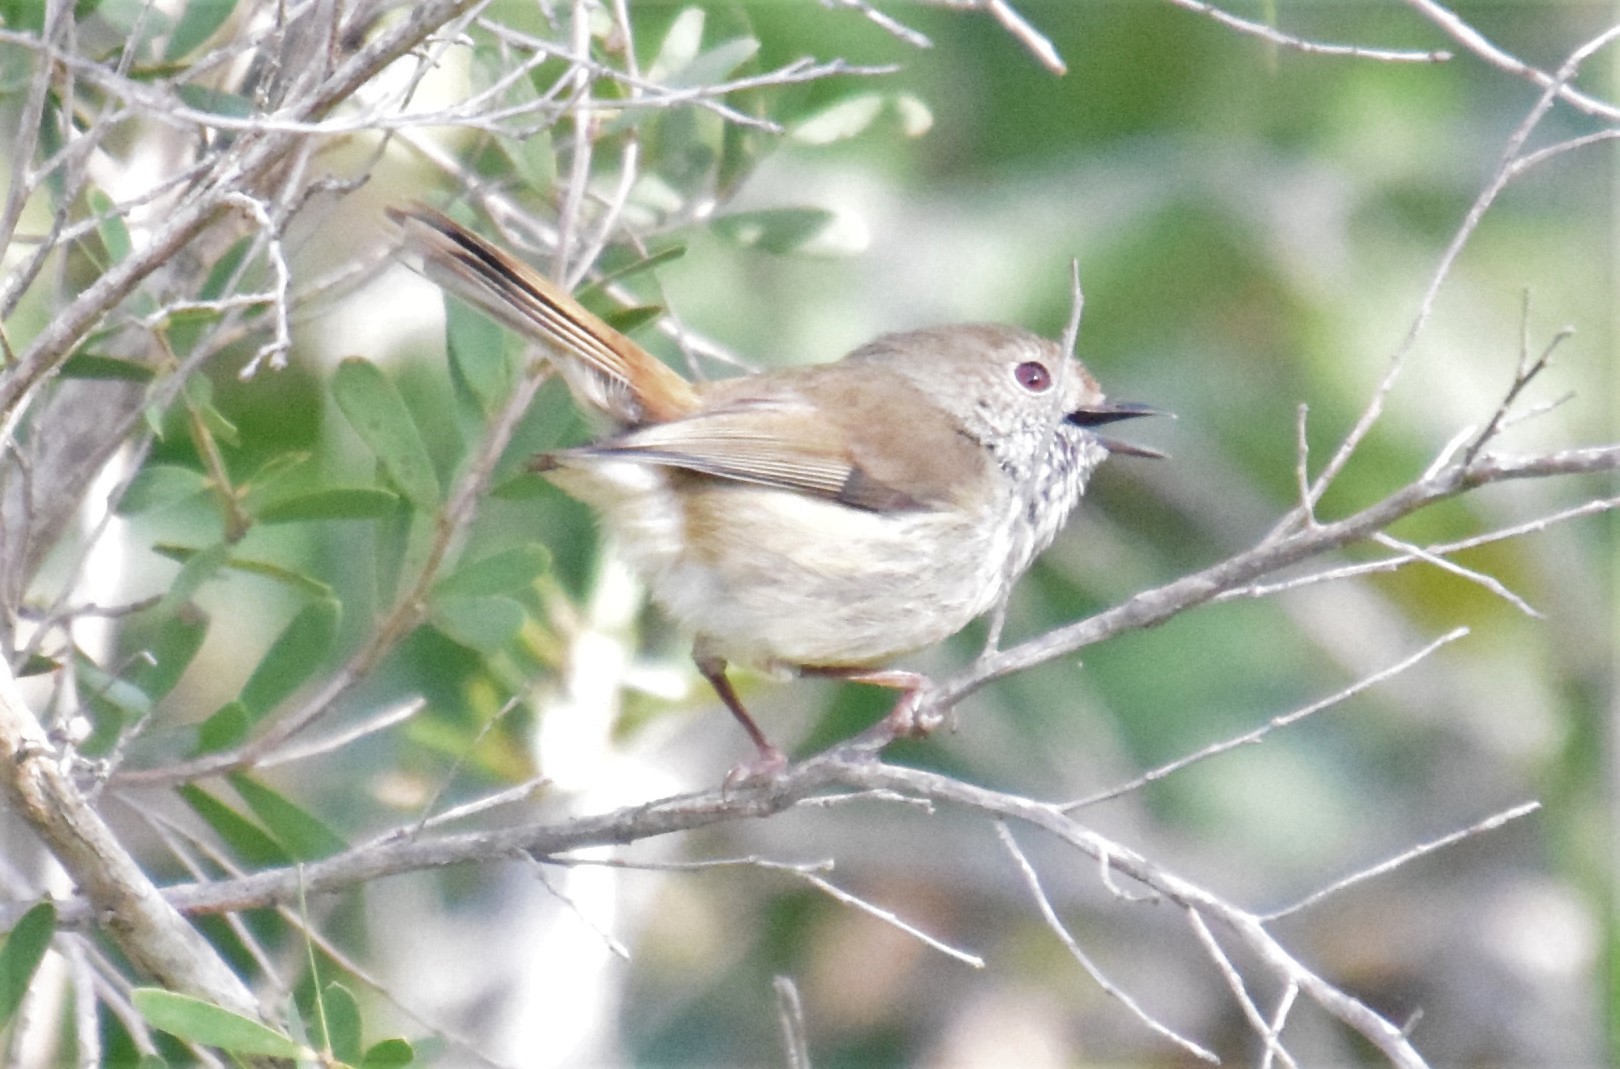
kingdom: Animalia
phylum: Chordata
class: Aves
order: Passeriformes
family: Acanthizidae
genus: Acanthiza
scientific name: Acanthiza pusilla
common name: Brown thornbill
